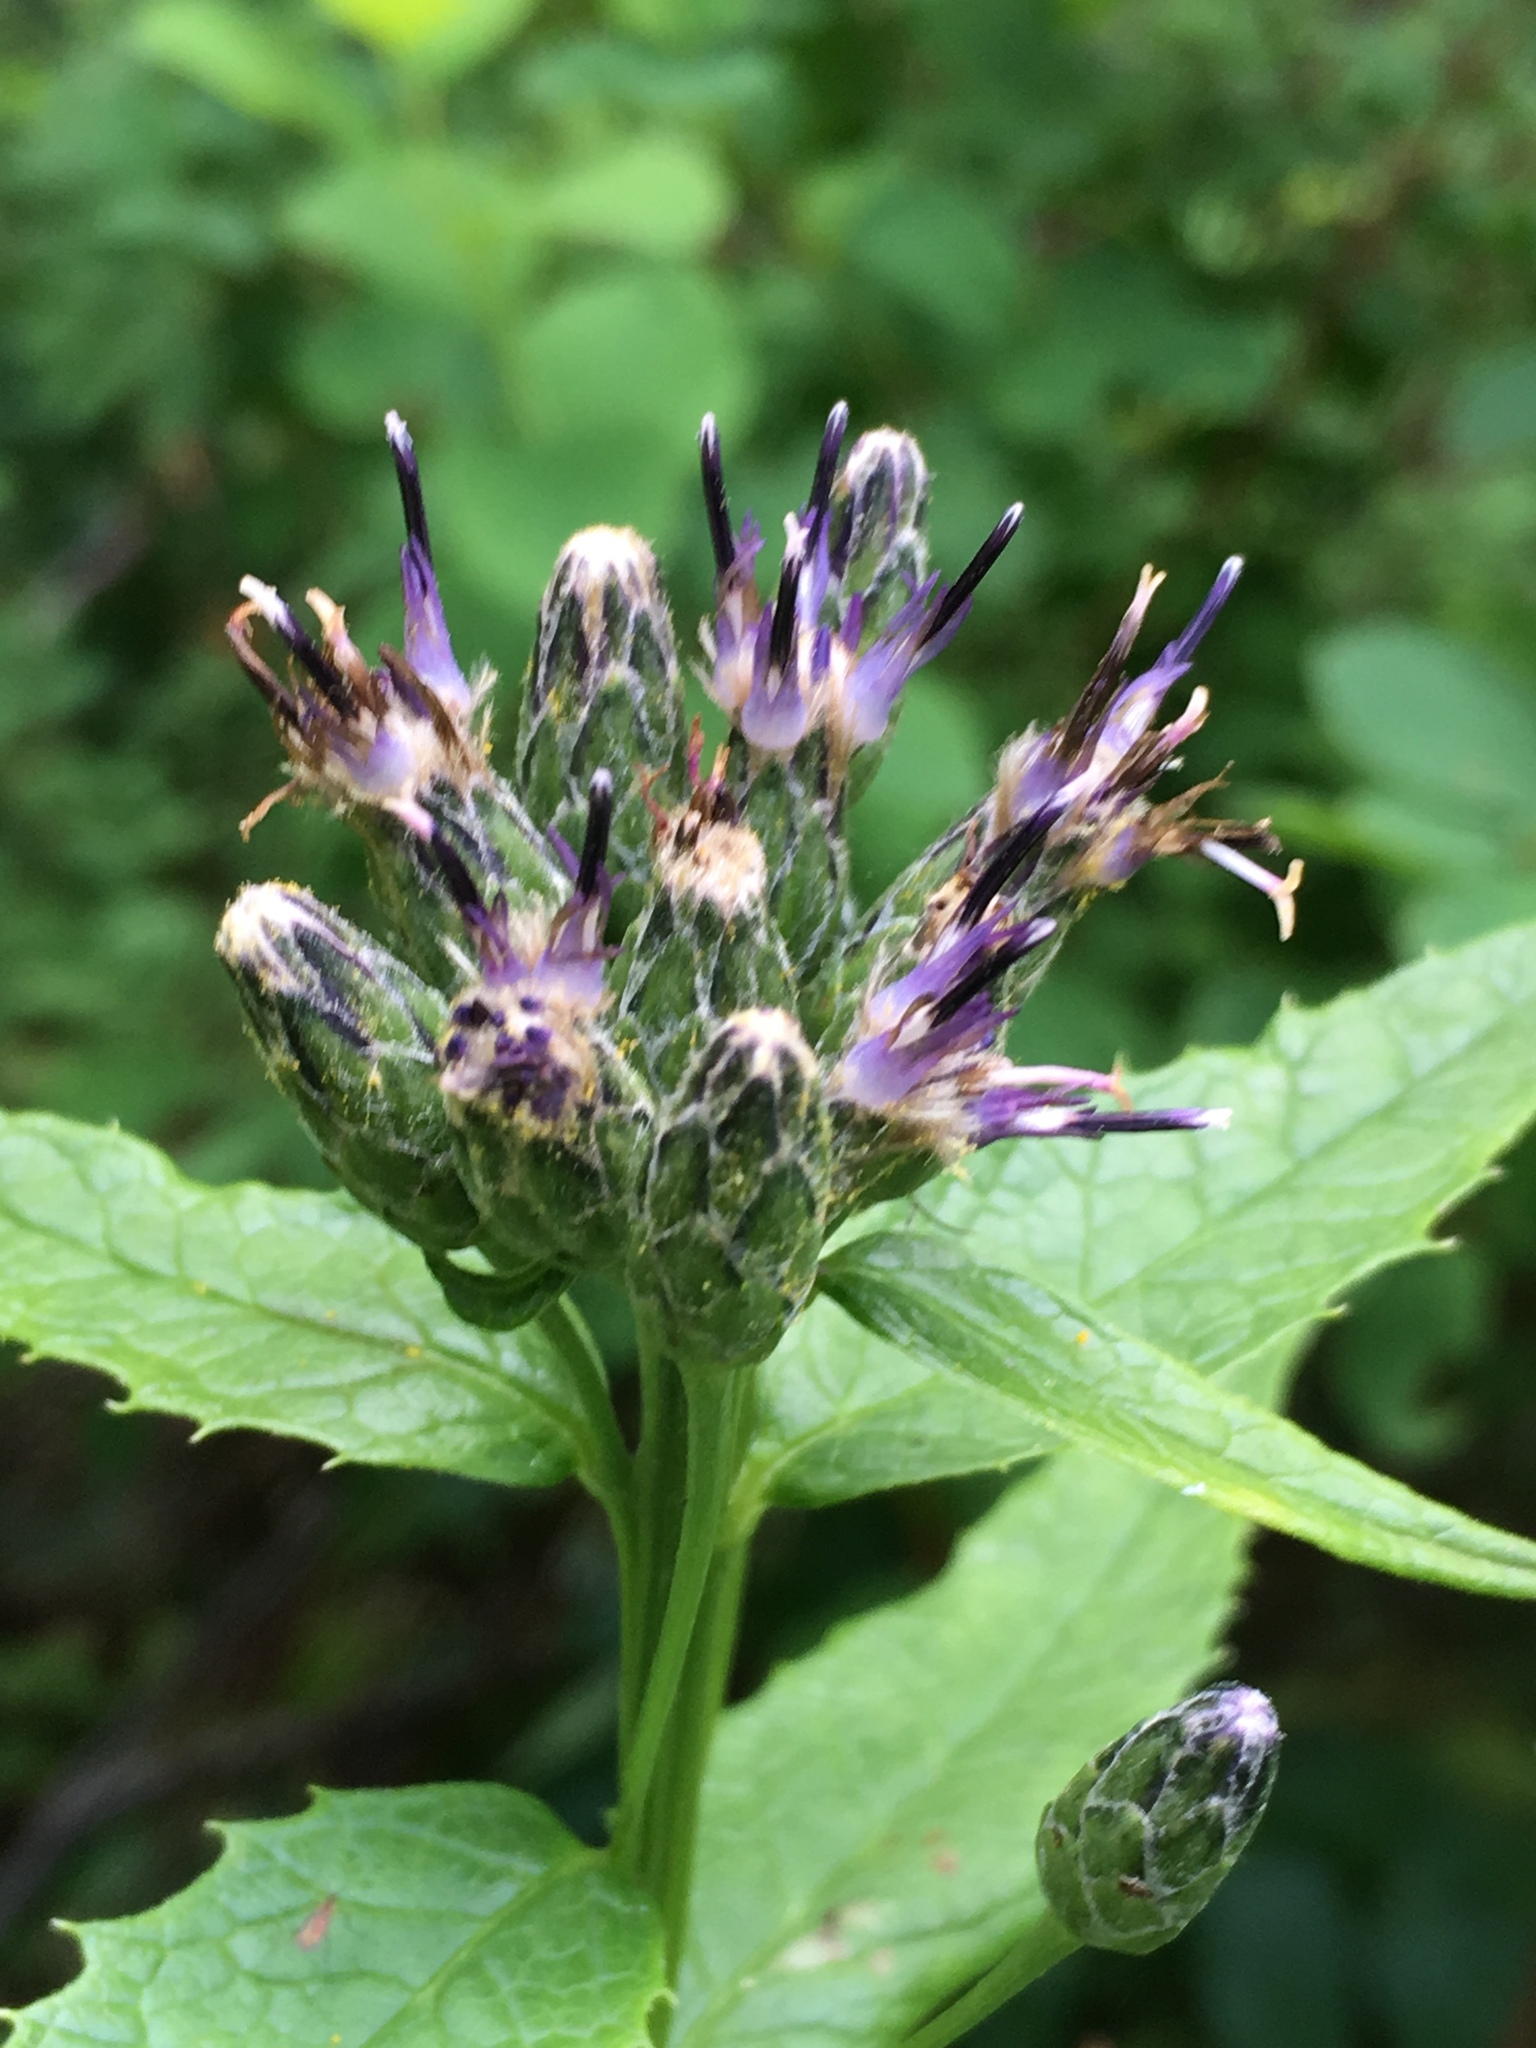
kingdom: Plantae
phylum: Tracheophyta
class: Magnoliopsida
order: Asterales
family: Asteraceae
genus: Saussurea
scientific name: Saussurea americana
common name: American saw-wort
